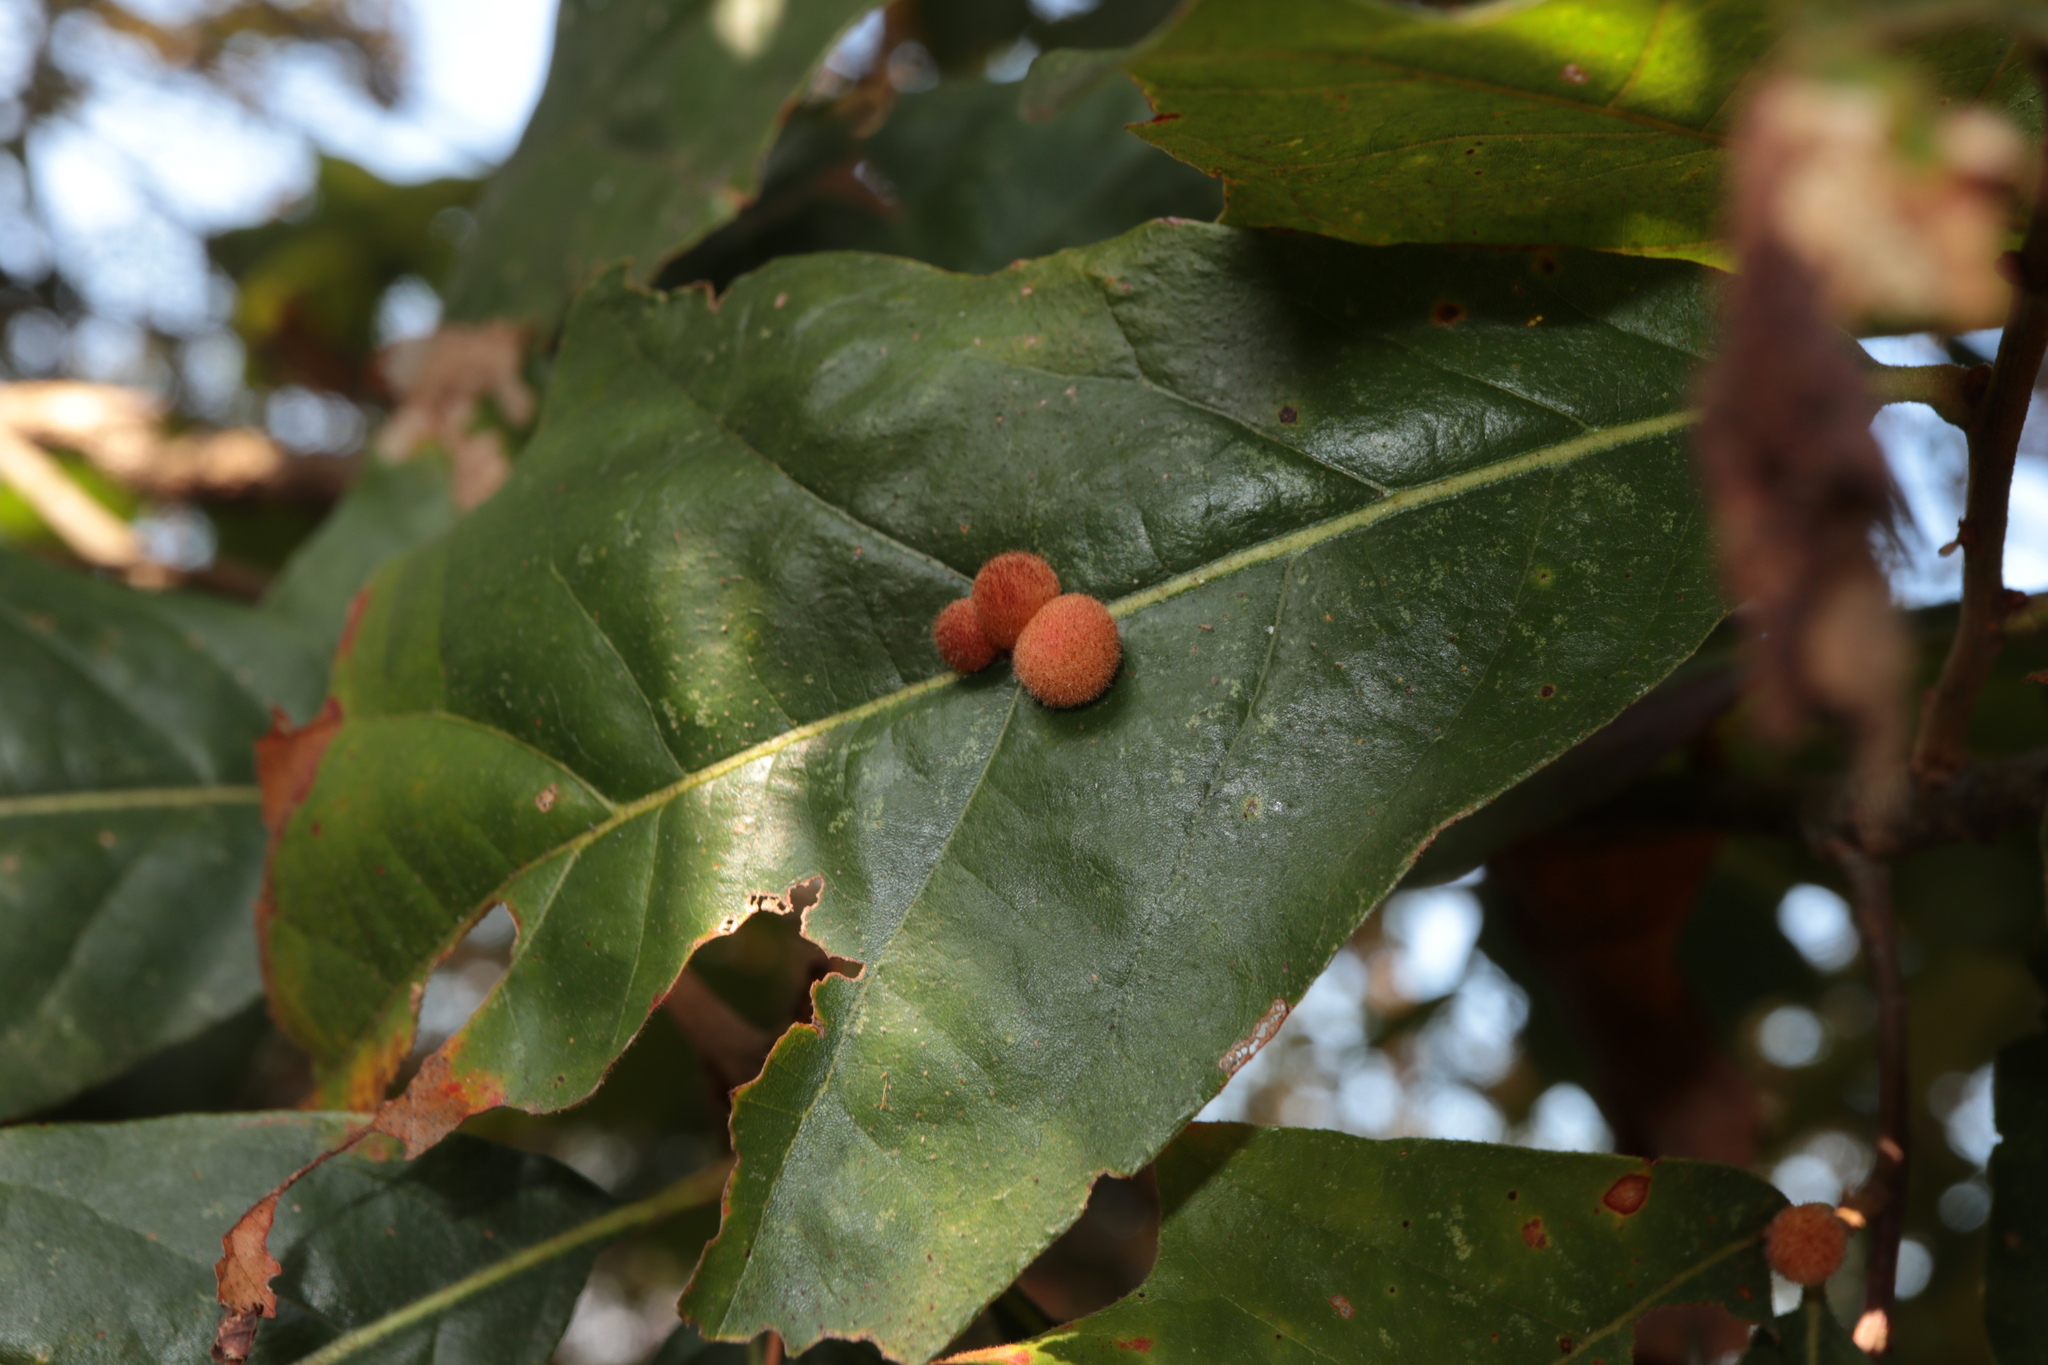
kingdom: Animalia
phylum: Arthropoda
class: Insecta
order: Hymenoptera
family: Cynipidae
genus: Biorhiza
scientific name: Biorhiza Sphaeroteras carolina
